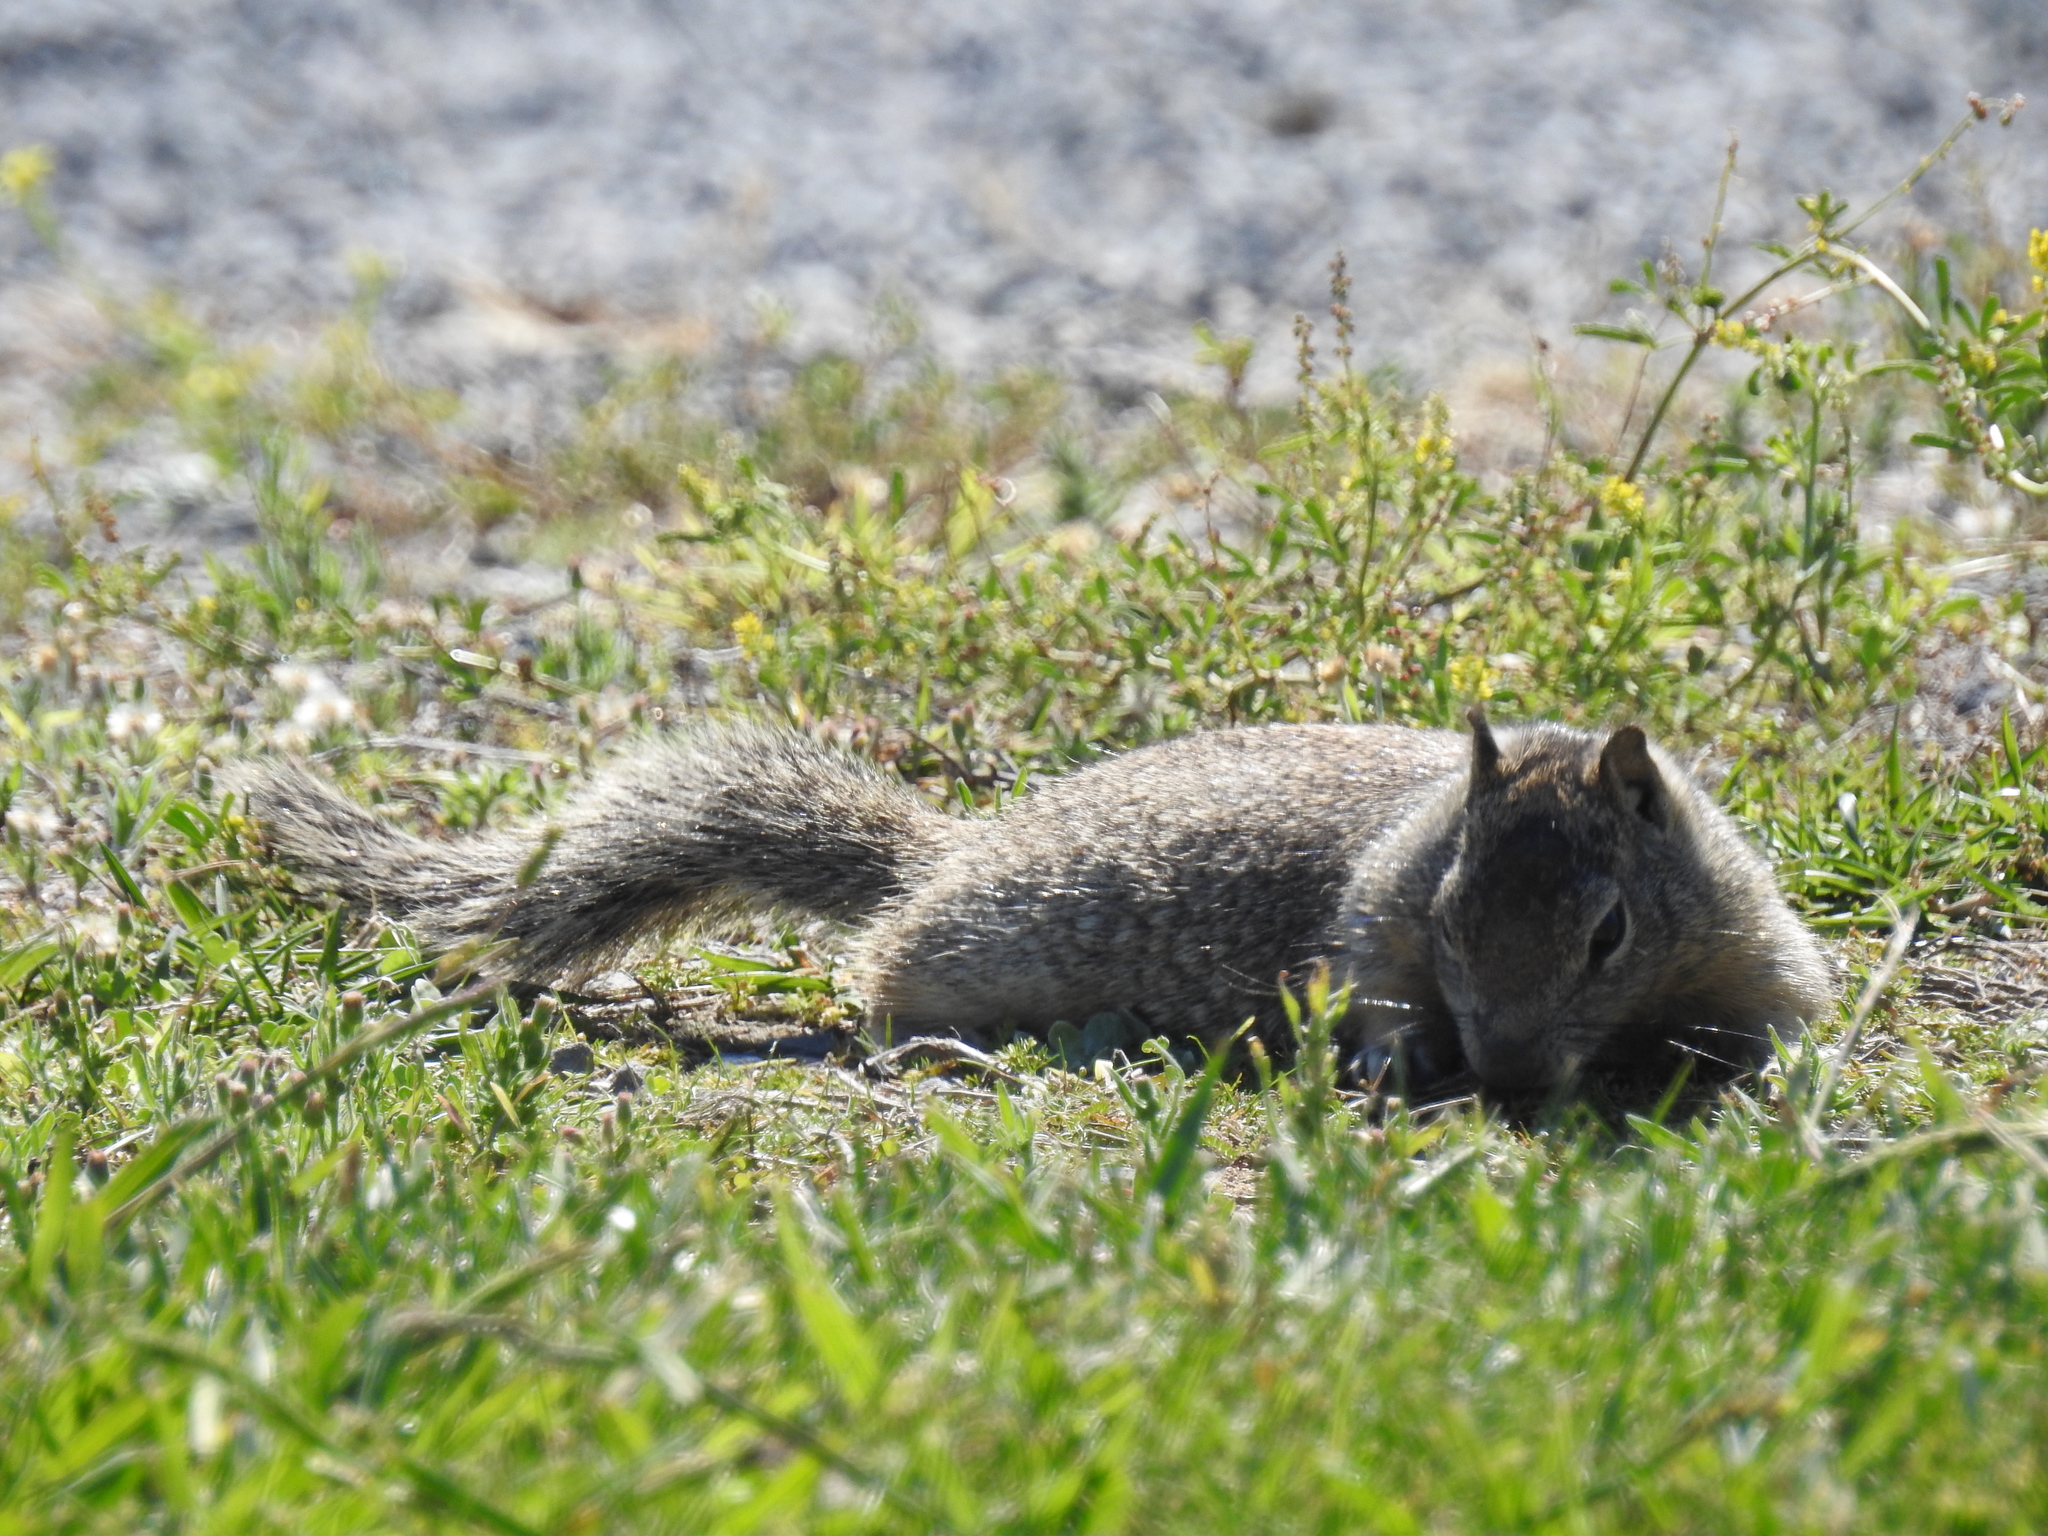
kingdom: Animalia
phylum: Chordata
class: Mammalia
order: Rodentia
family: Sciuridae
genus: Otospermophilus
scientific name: Otospermophilus beecheyi
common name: California ground squirrel
